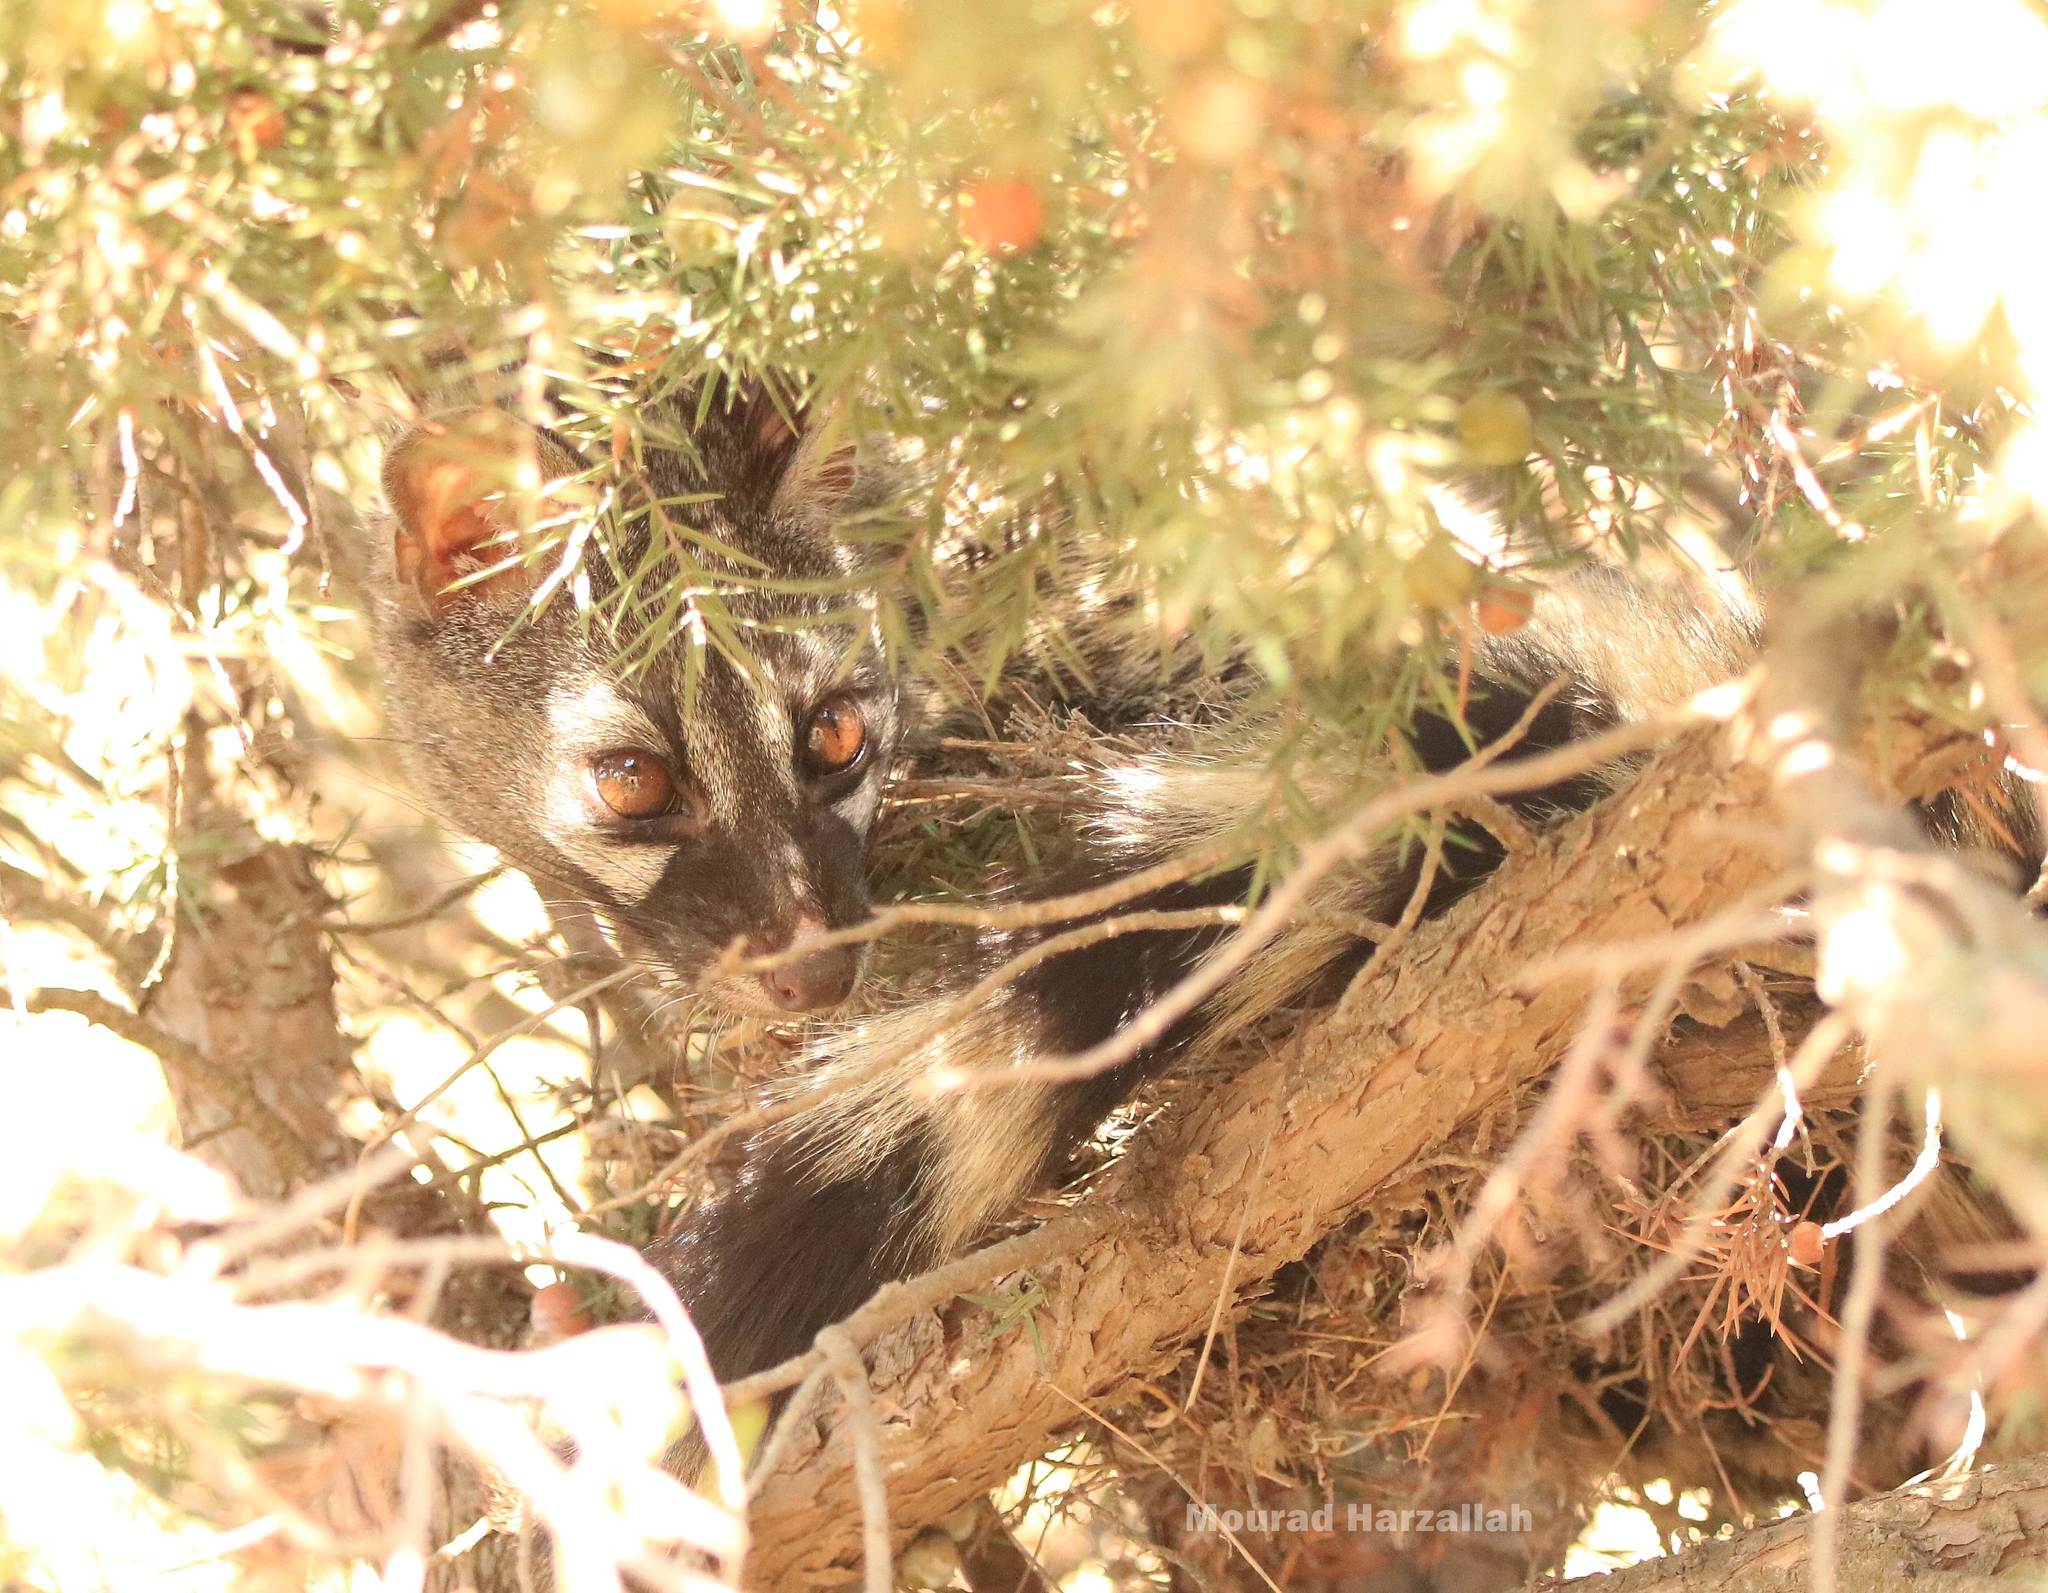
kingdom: Animalia
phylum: Chordata
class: Mammalia
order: Carnivora
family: Viverridae
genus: Genetta
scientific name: Genetta genetta
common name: Common genet
